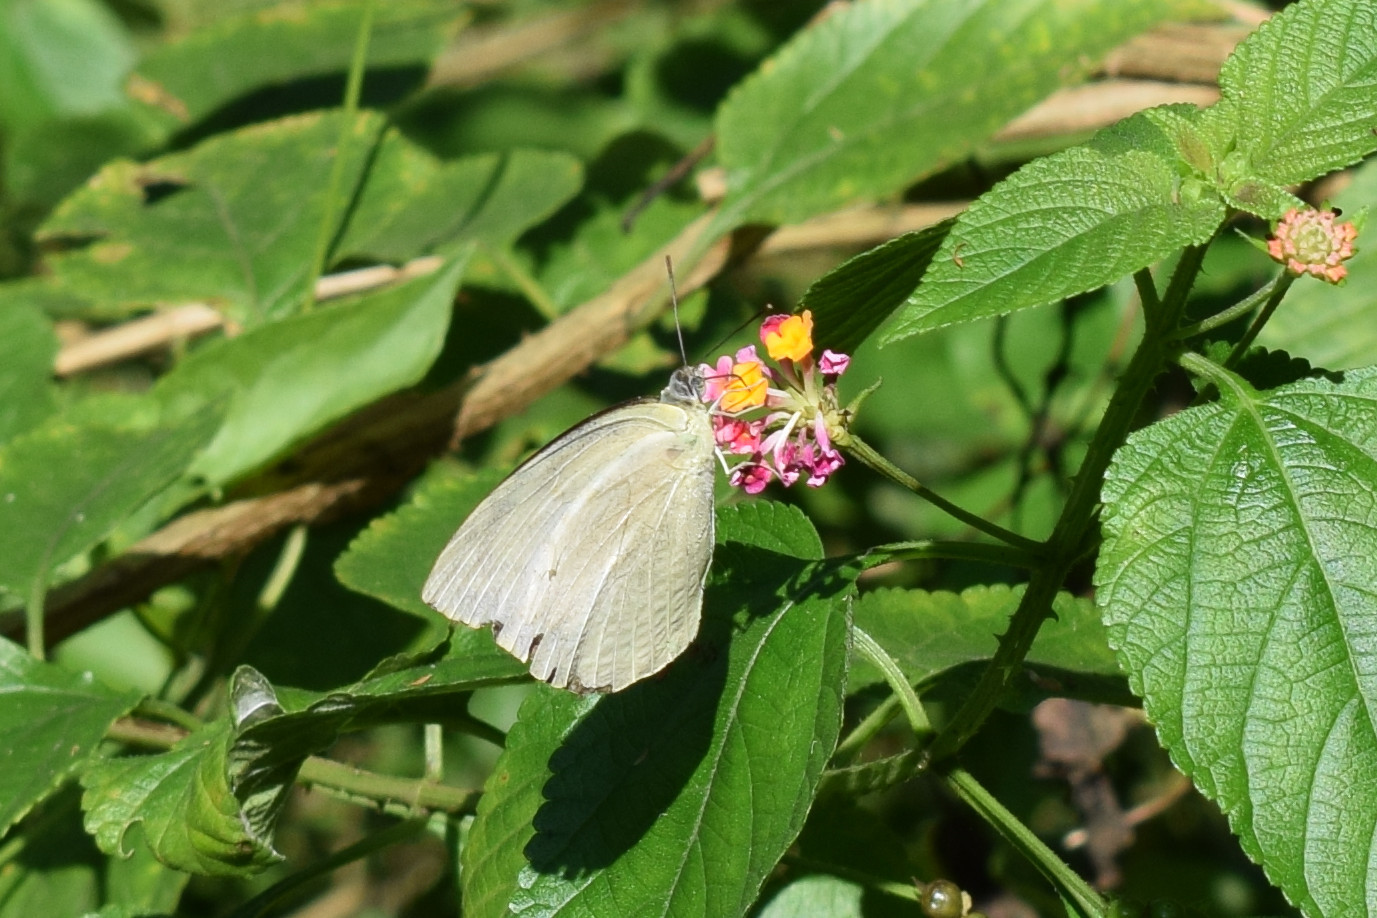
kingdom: Animalia
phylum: Arthropoda
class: Insecta
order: Lepidoptera
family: Pieridae
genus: Catopsilia
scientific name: Catopsilia pyranthe
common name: Mottled emigrant
